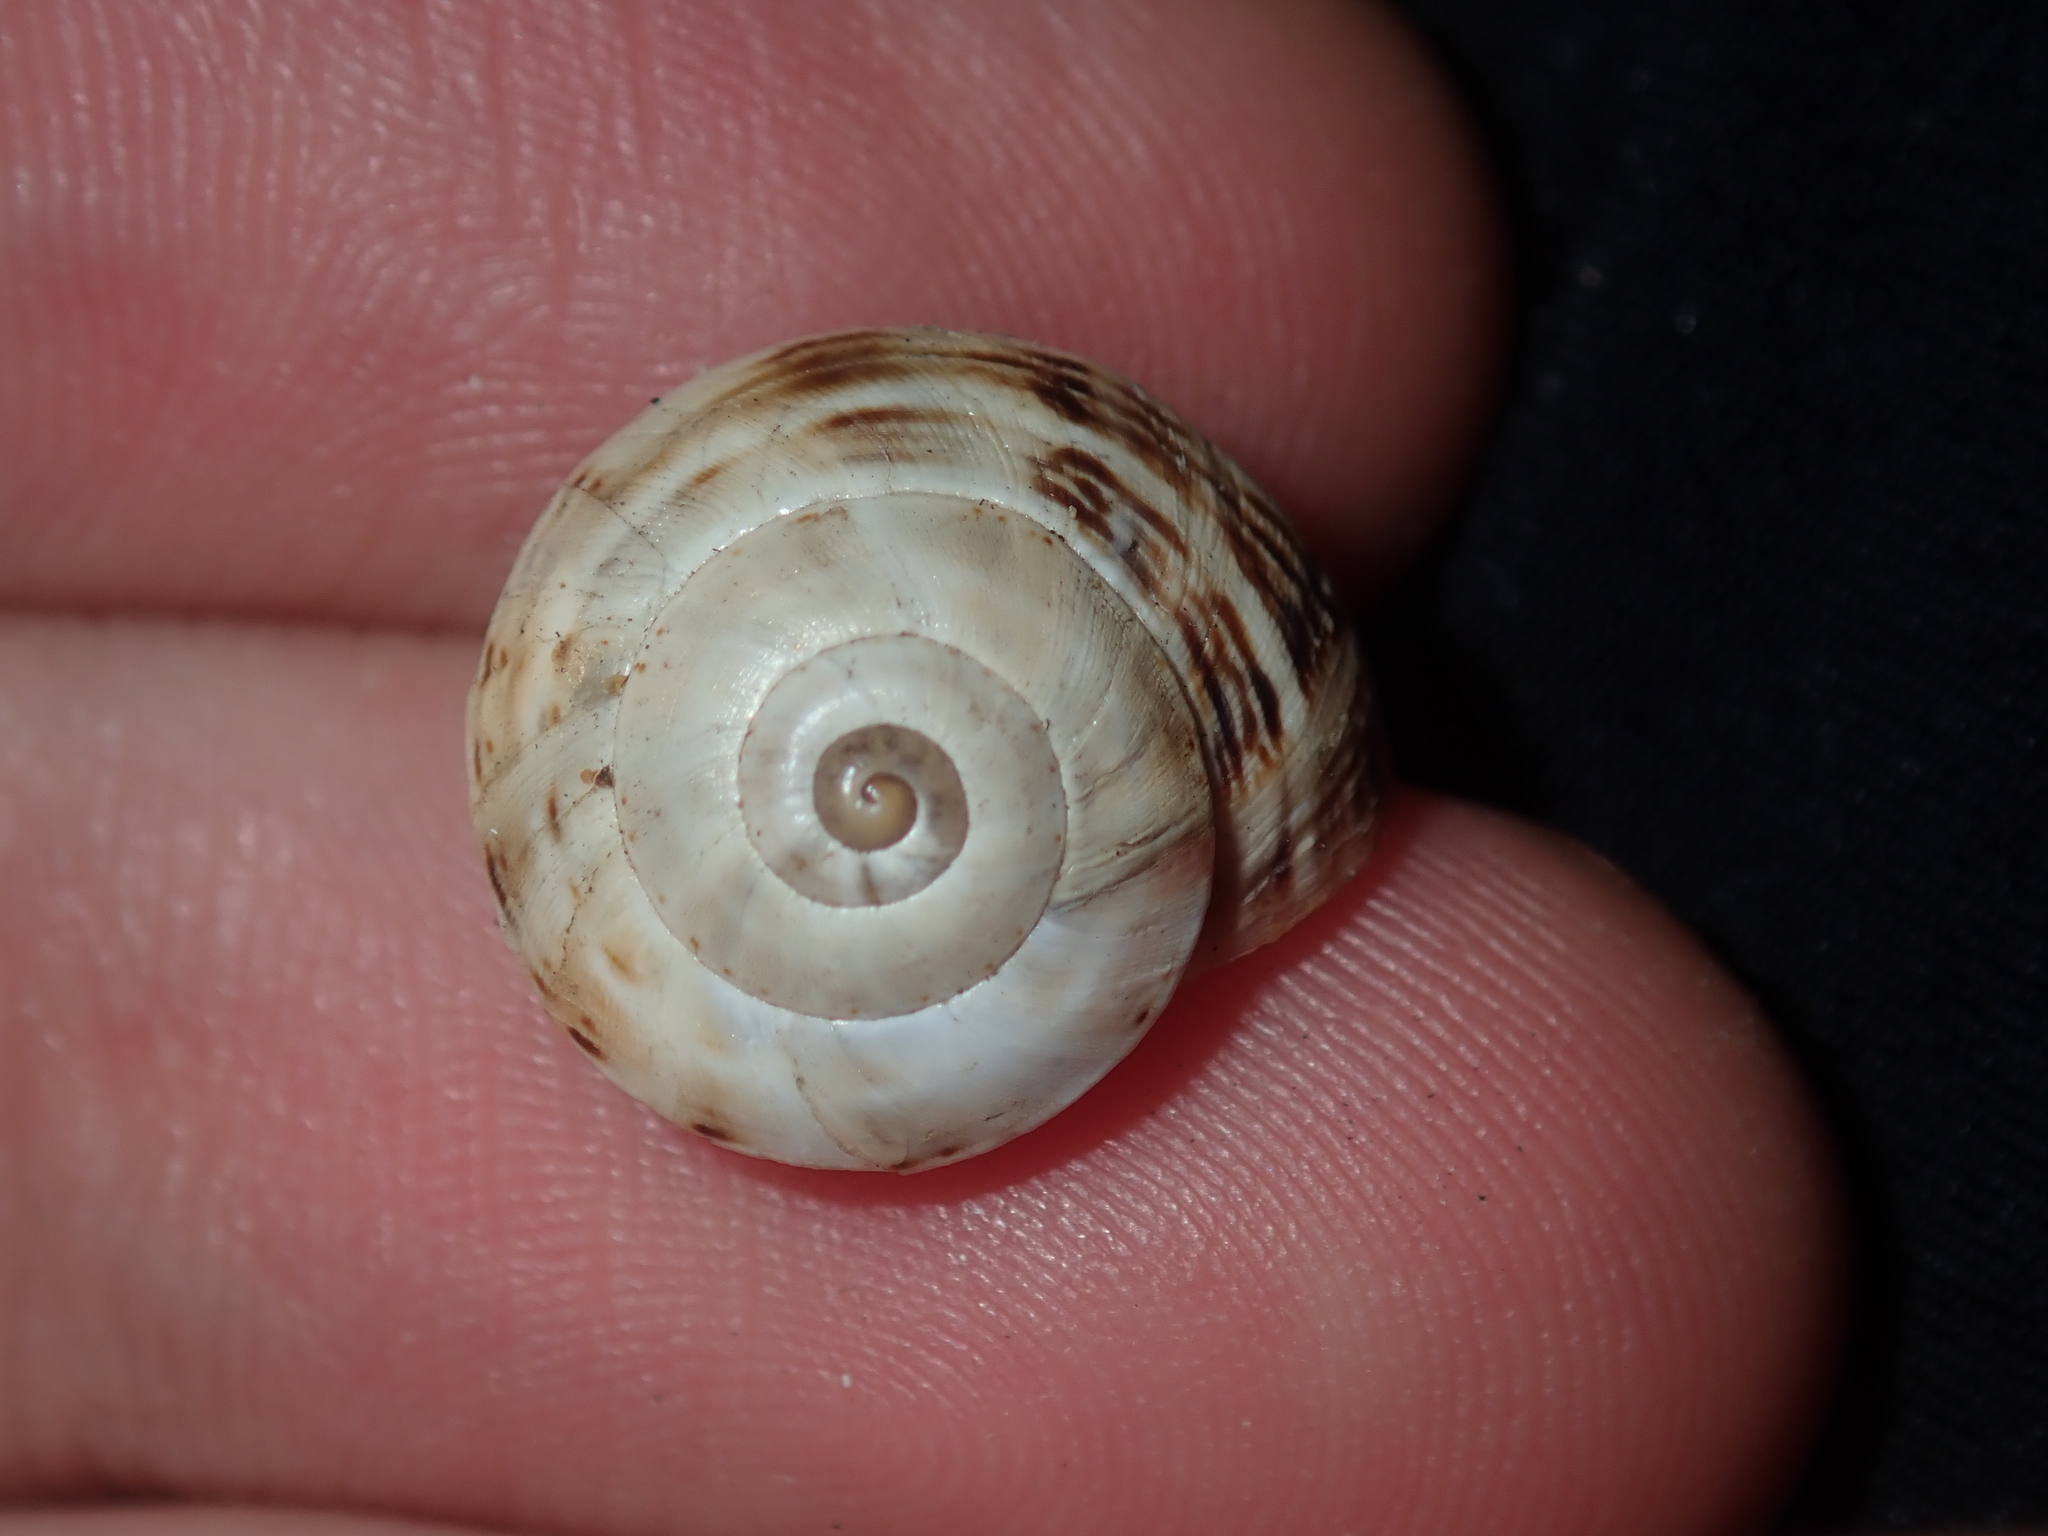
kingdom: Animalia
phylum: Mollusca
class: Gastropoda
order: Stylommatophora
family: Helicidae
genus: Theba
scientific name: Theba pisana
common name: White snail
